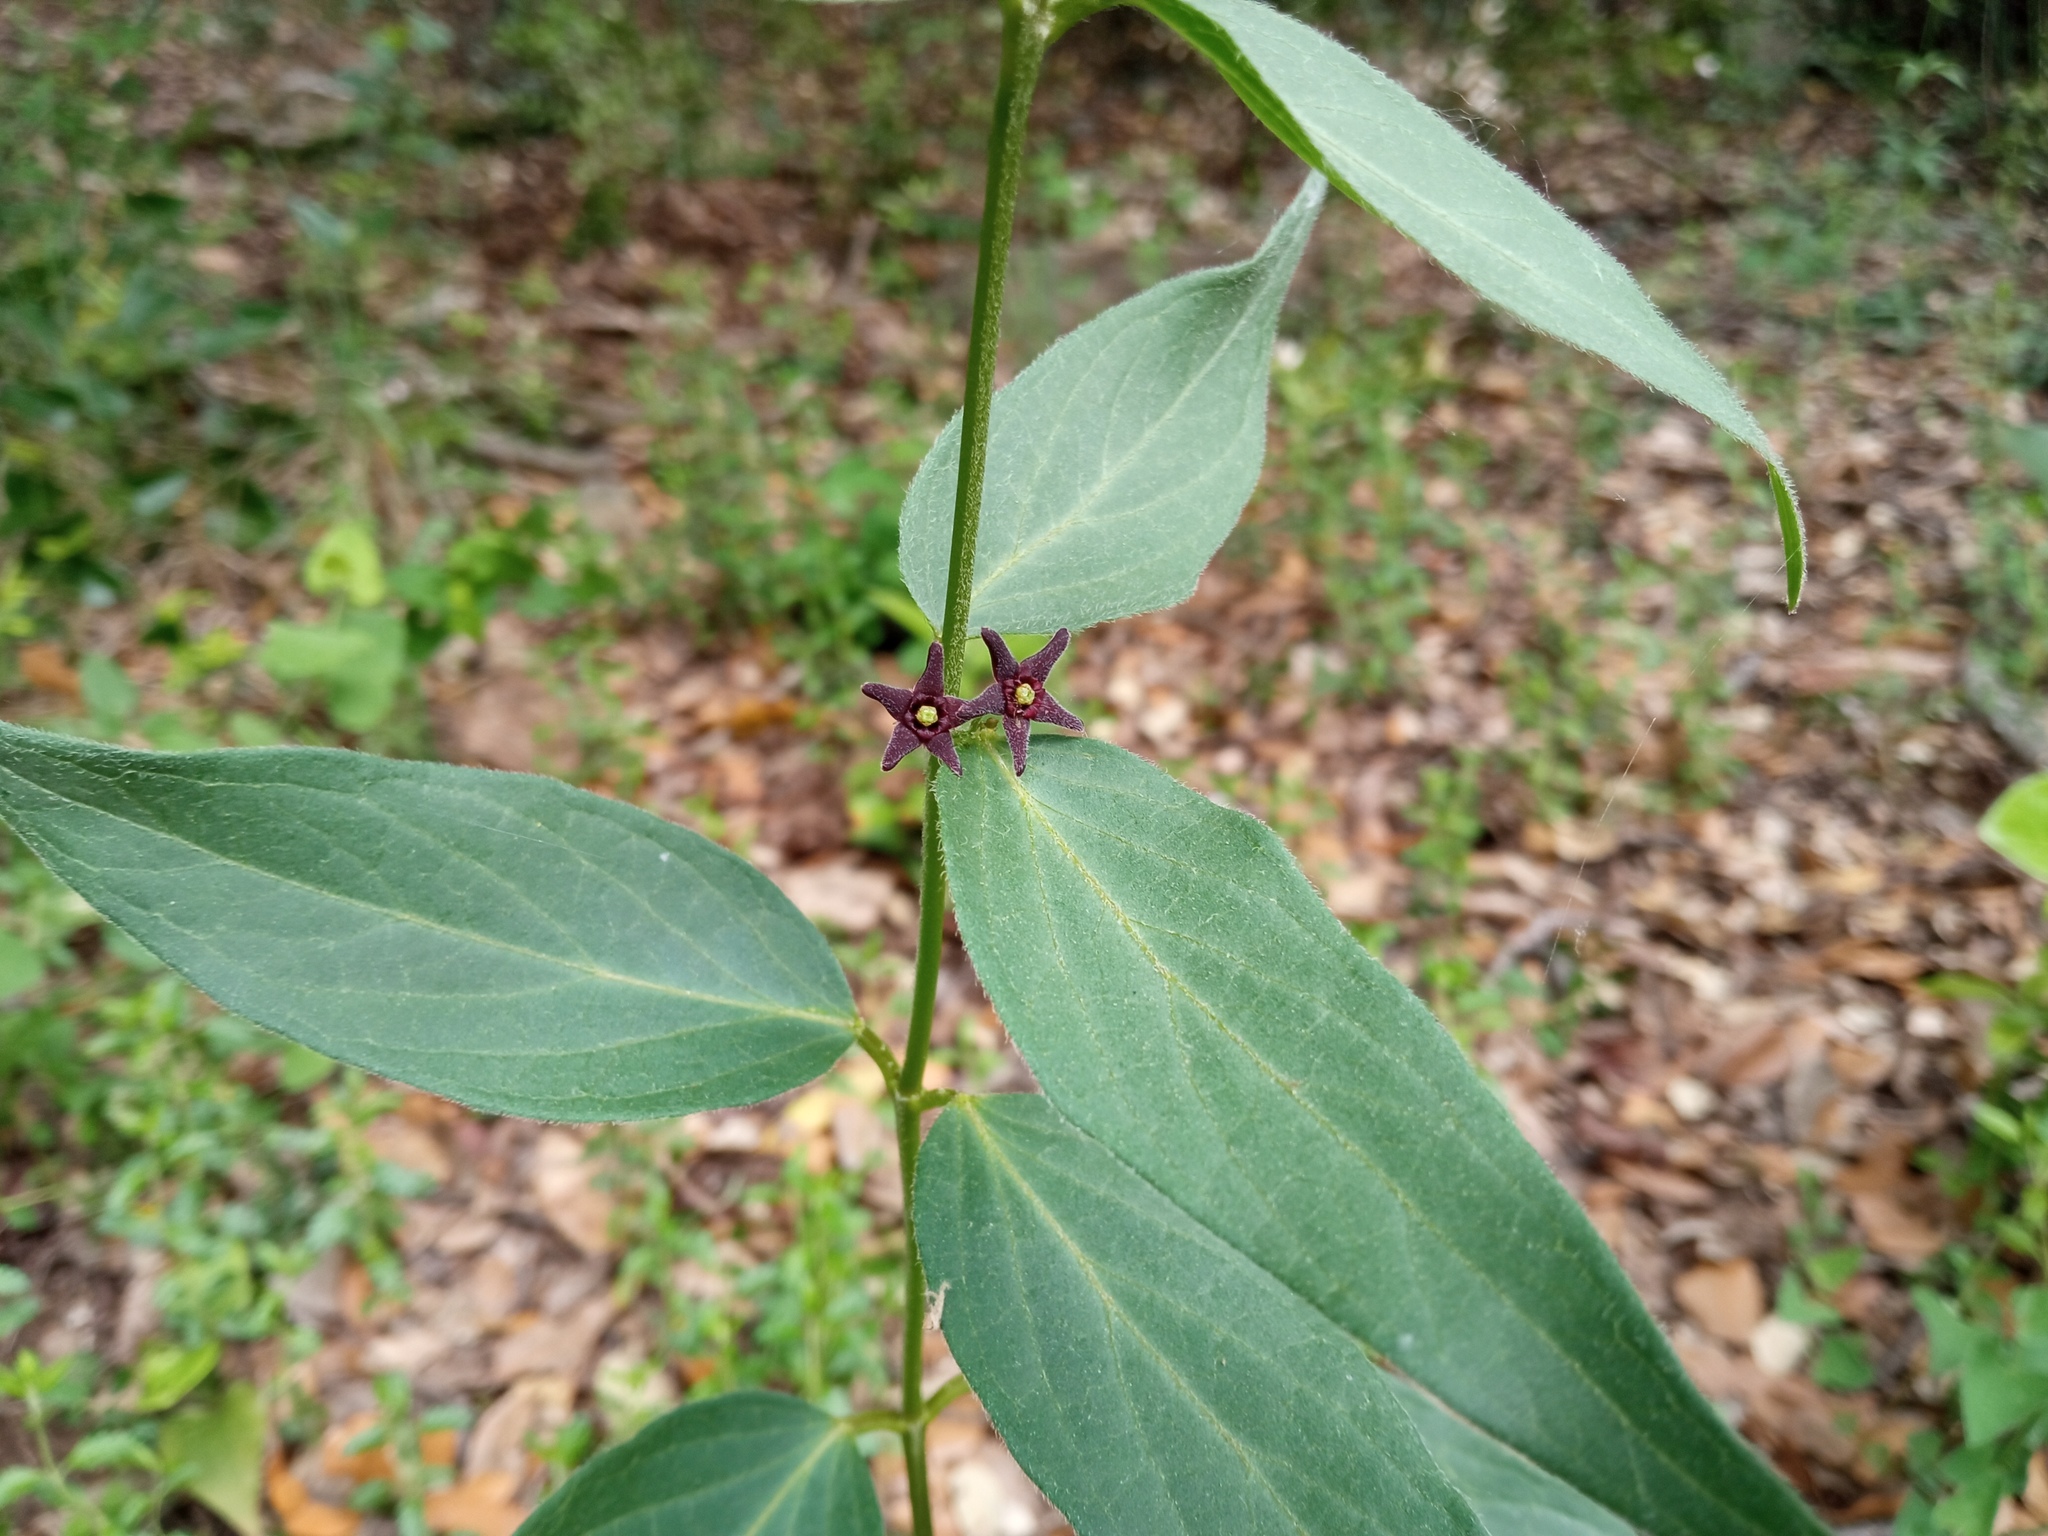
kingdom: Plantae
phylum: Tracheophyta
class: Magnoliopsida
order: Gentianales
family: Apocynaceae
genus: Vincetoxicum
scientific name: Vincetoxicum nigrum
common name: Black swallow-wort
